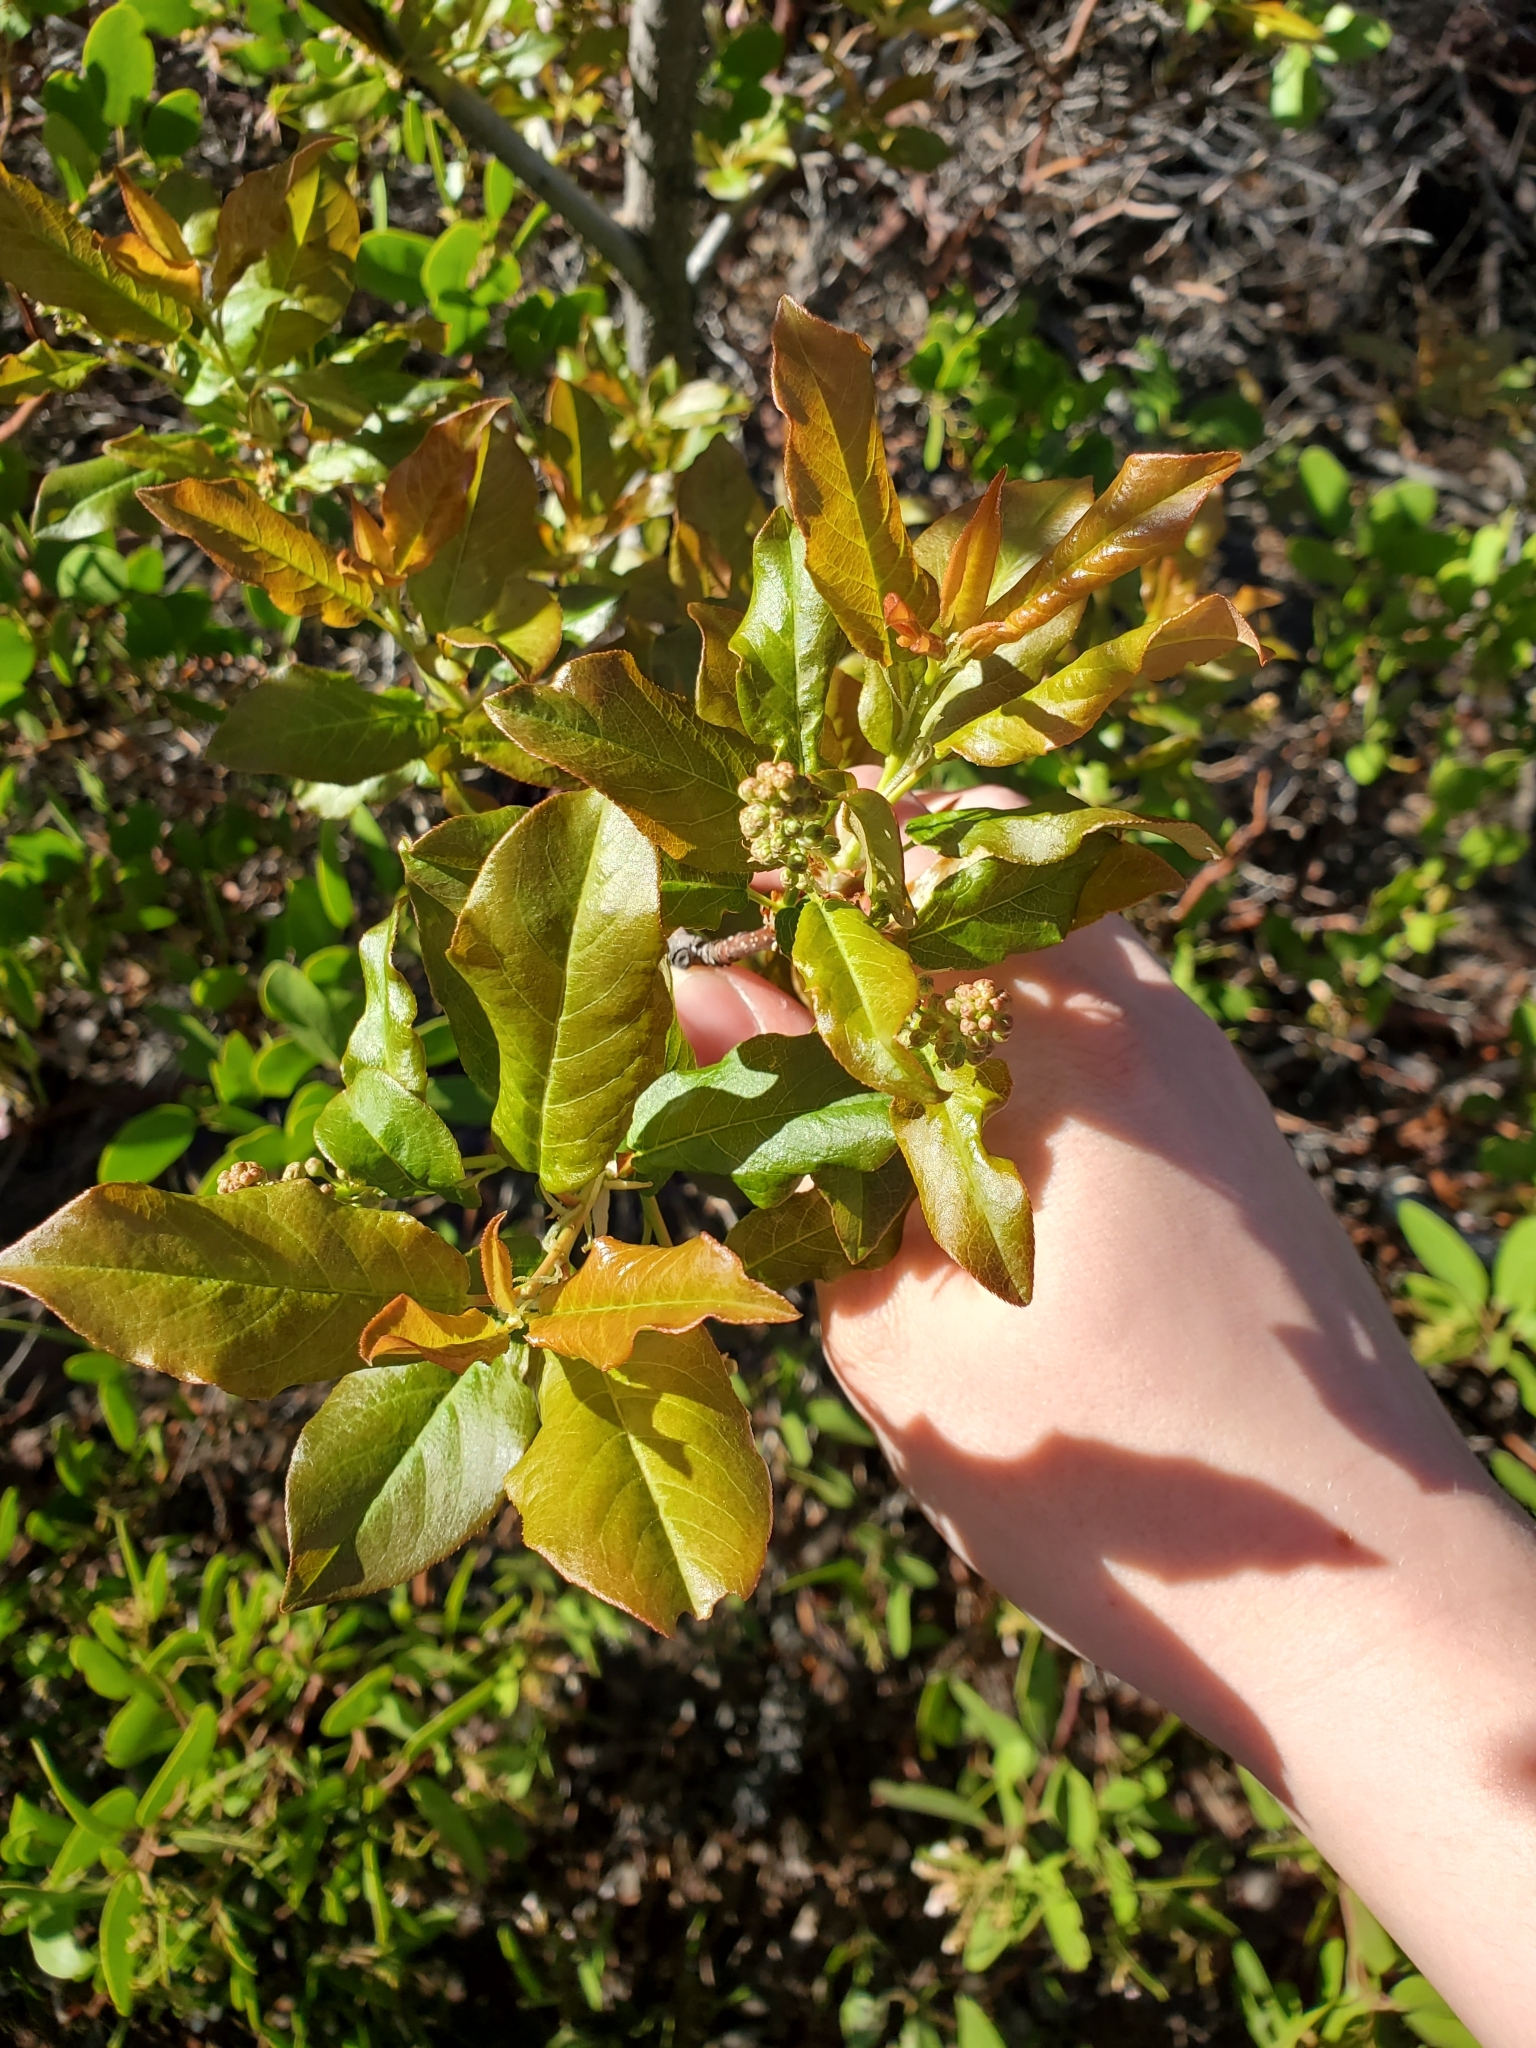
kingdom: Plantae
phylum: Tracheophyta
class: Magnoliopsida
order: Rosales
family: Rosaceae
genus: Prunus
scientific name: Prunus virginiana
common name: Chokecherry
